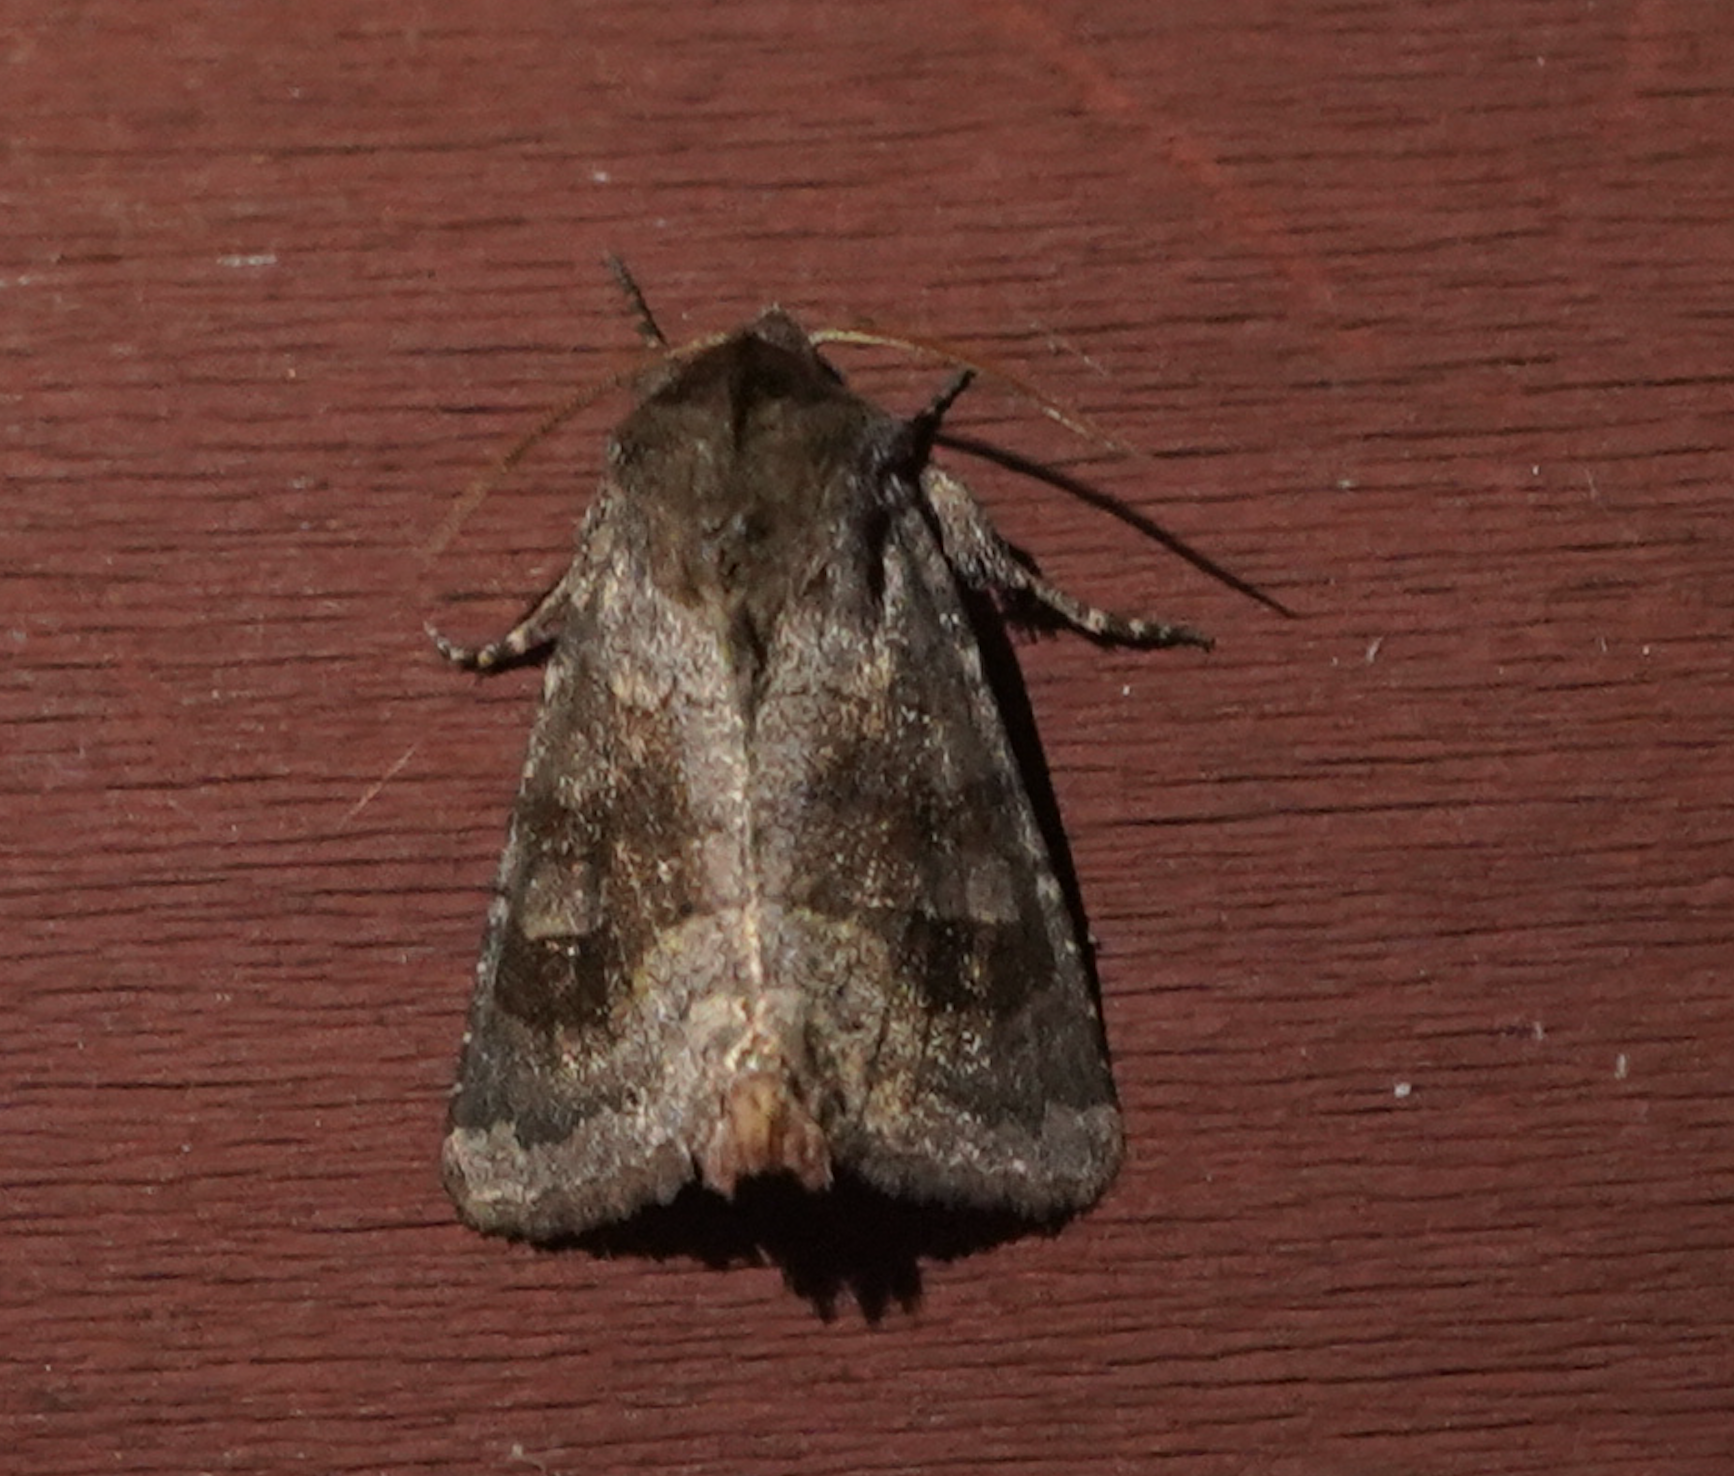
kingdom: Animalia
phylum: Arthropoda
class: Insecta
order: Lepidoptera
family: Noctuidae
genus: Nephelodes
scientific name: Nephelodes minians
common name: Bronzed cutworm
